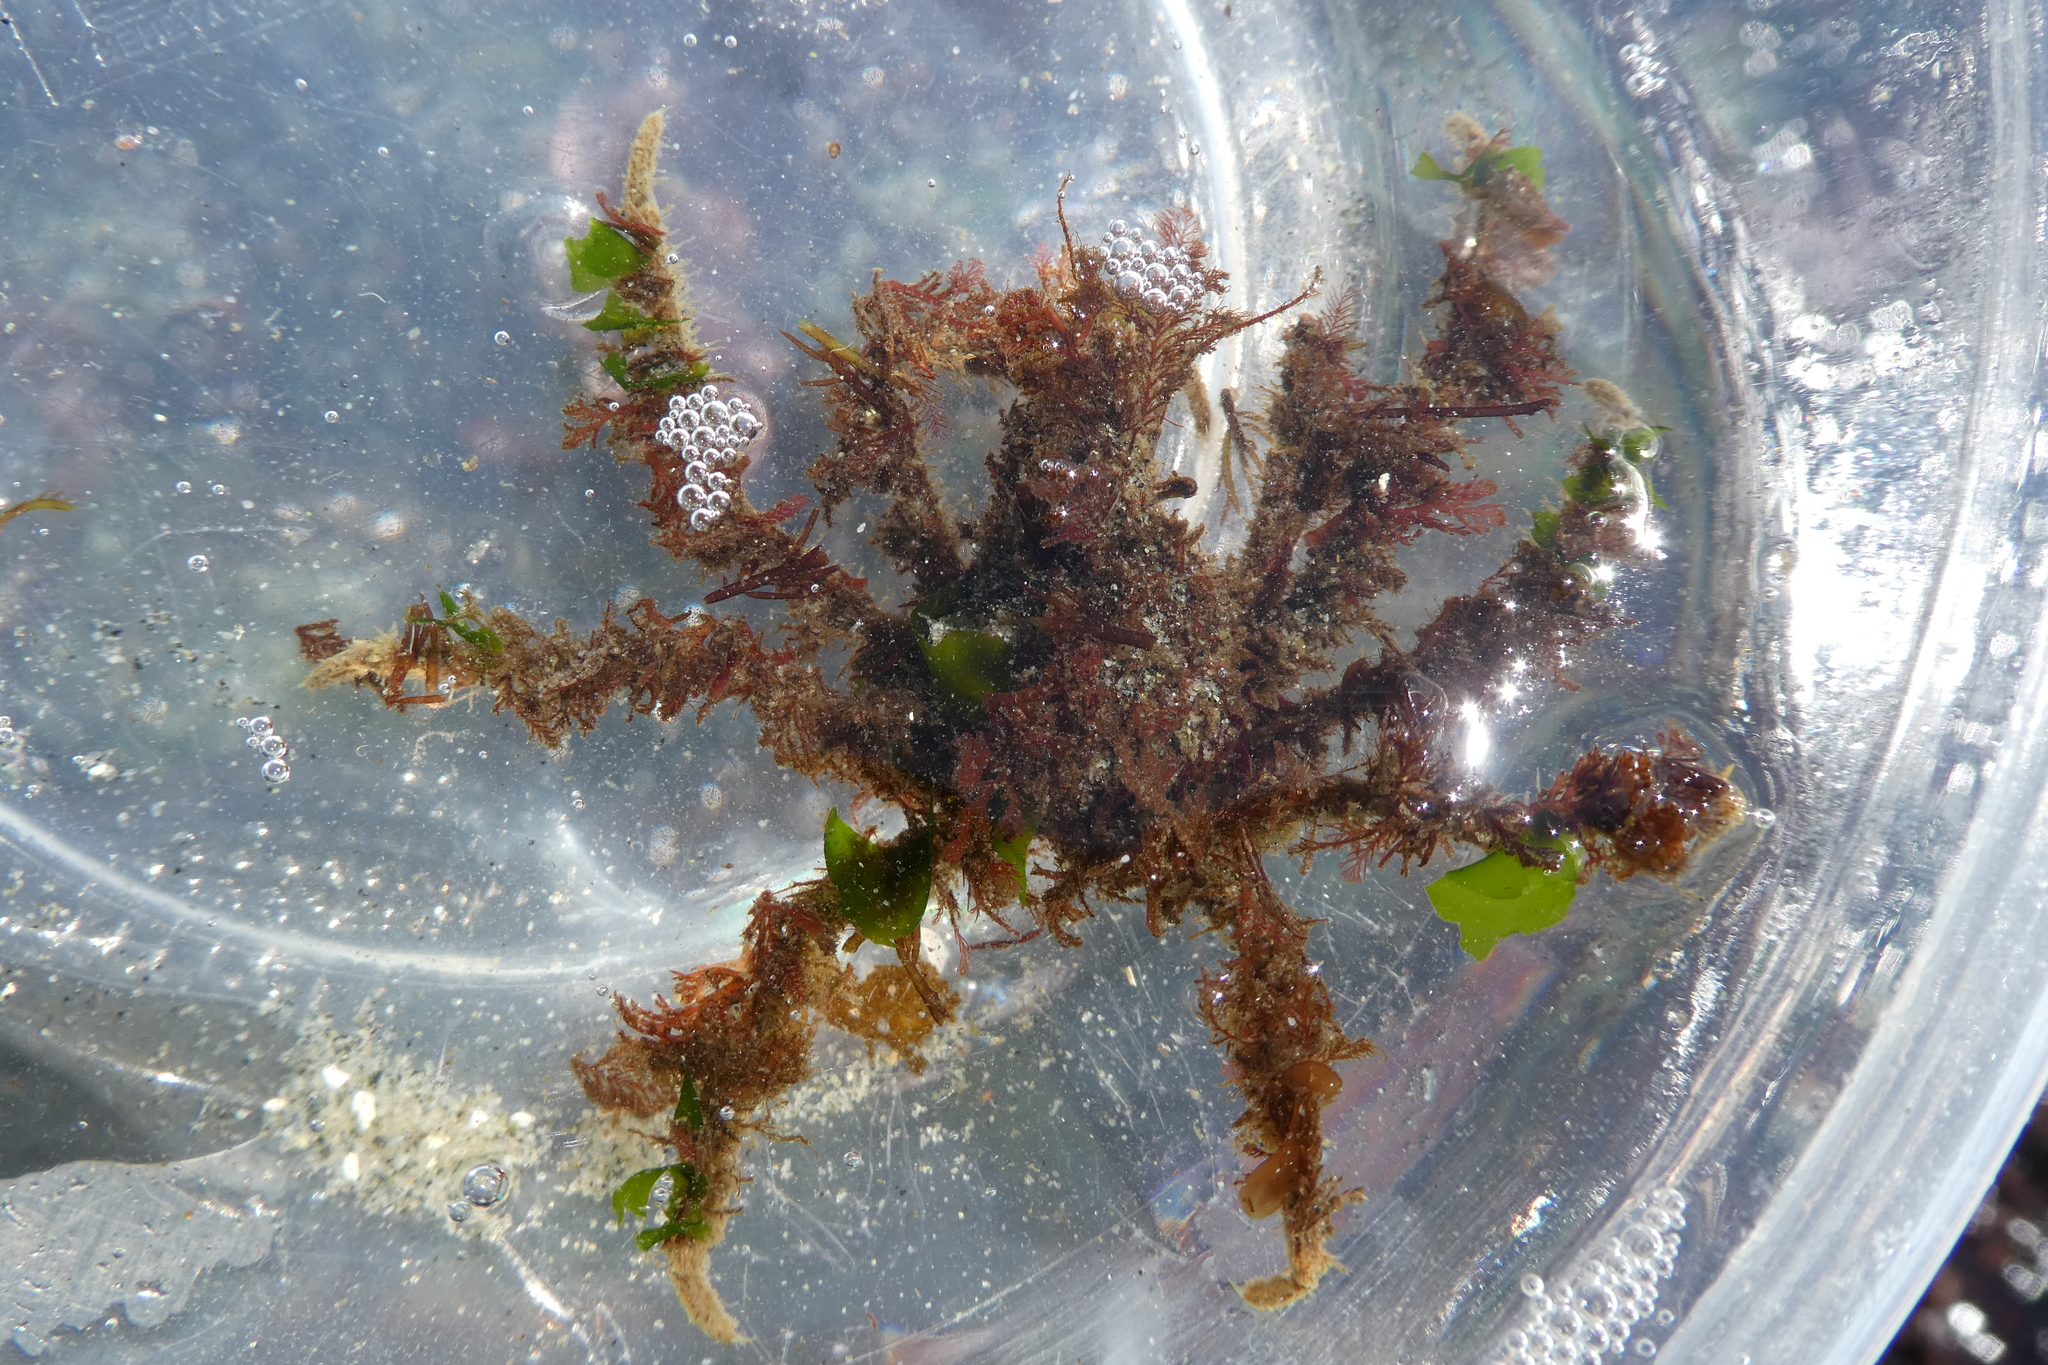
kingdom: Animalia
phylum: Arthropoda
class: Malacostraca
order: Decapoda
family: Oregoniidae
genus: Oregonia
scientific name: Oregonia gracilis
